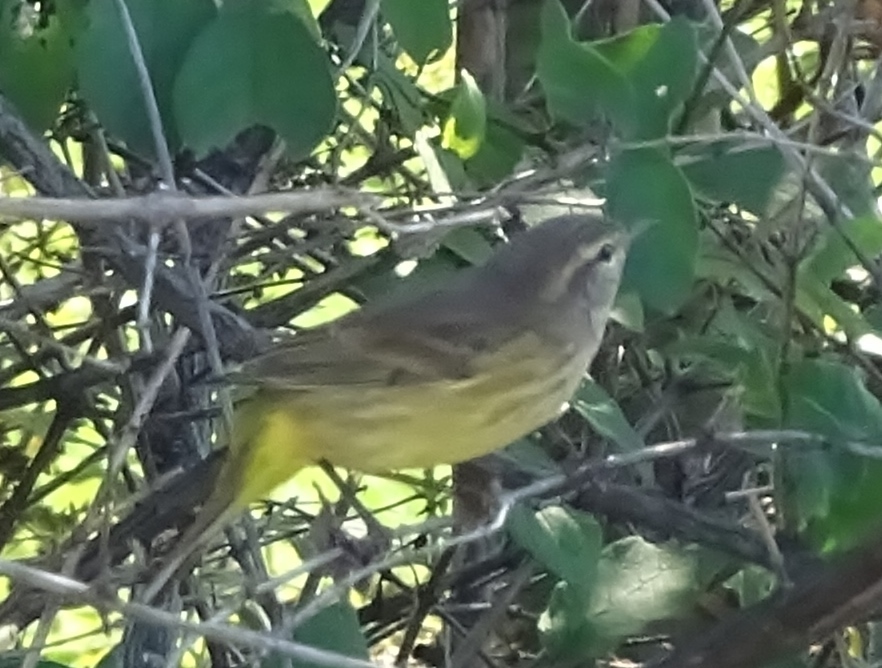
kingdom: Animalia
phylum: Chordata
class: Aves
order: Passeriformes
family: Parulidae
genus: Setophaga
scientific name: Setophaga palmarum
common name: Palm warbler
